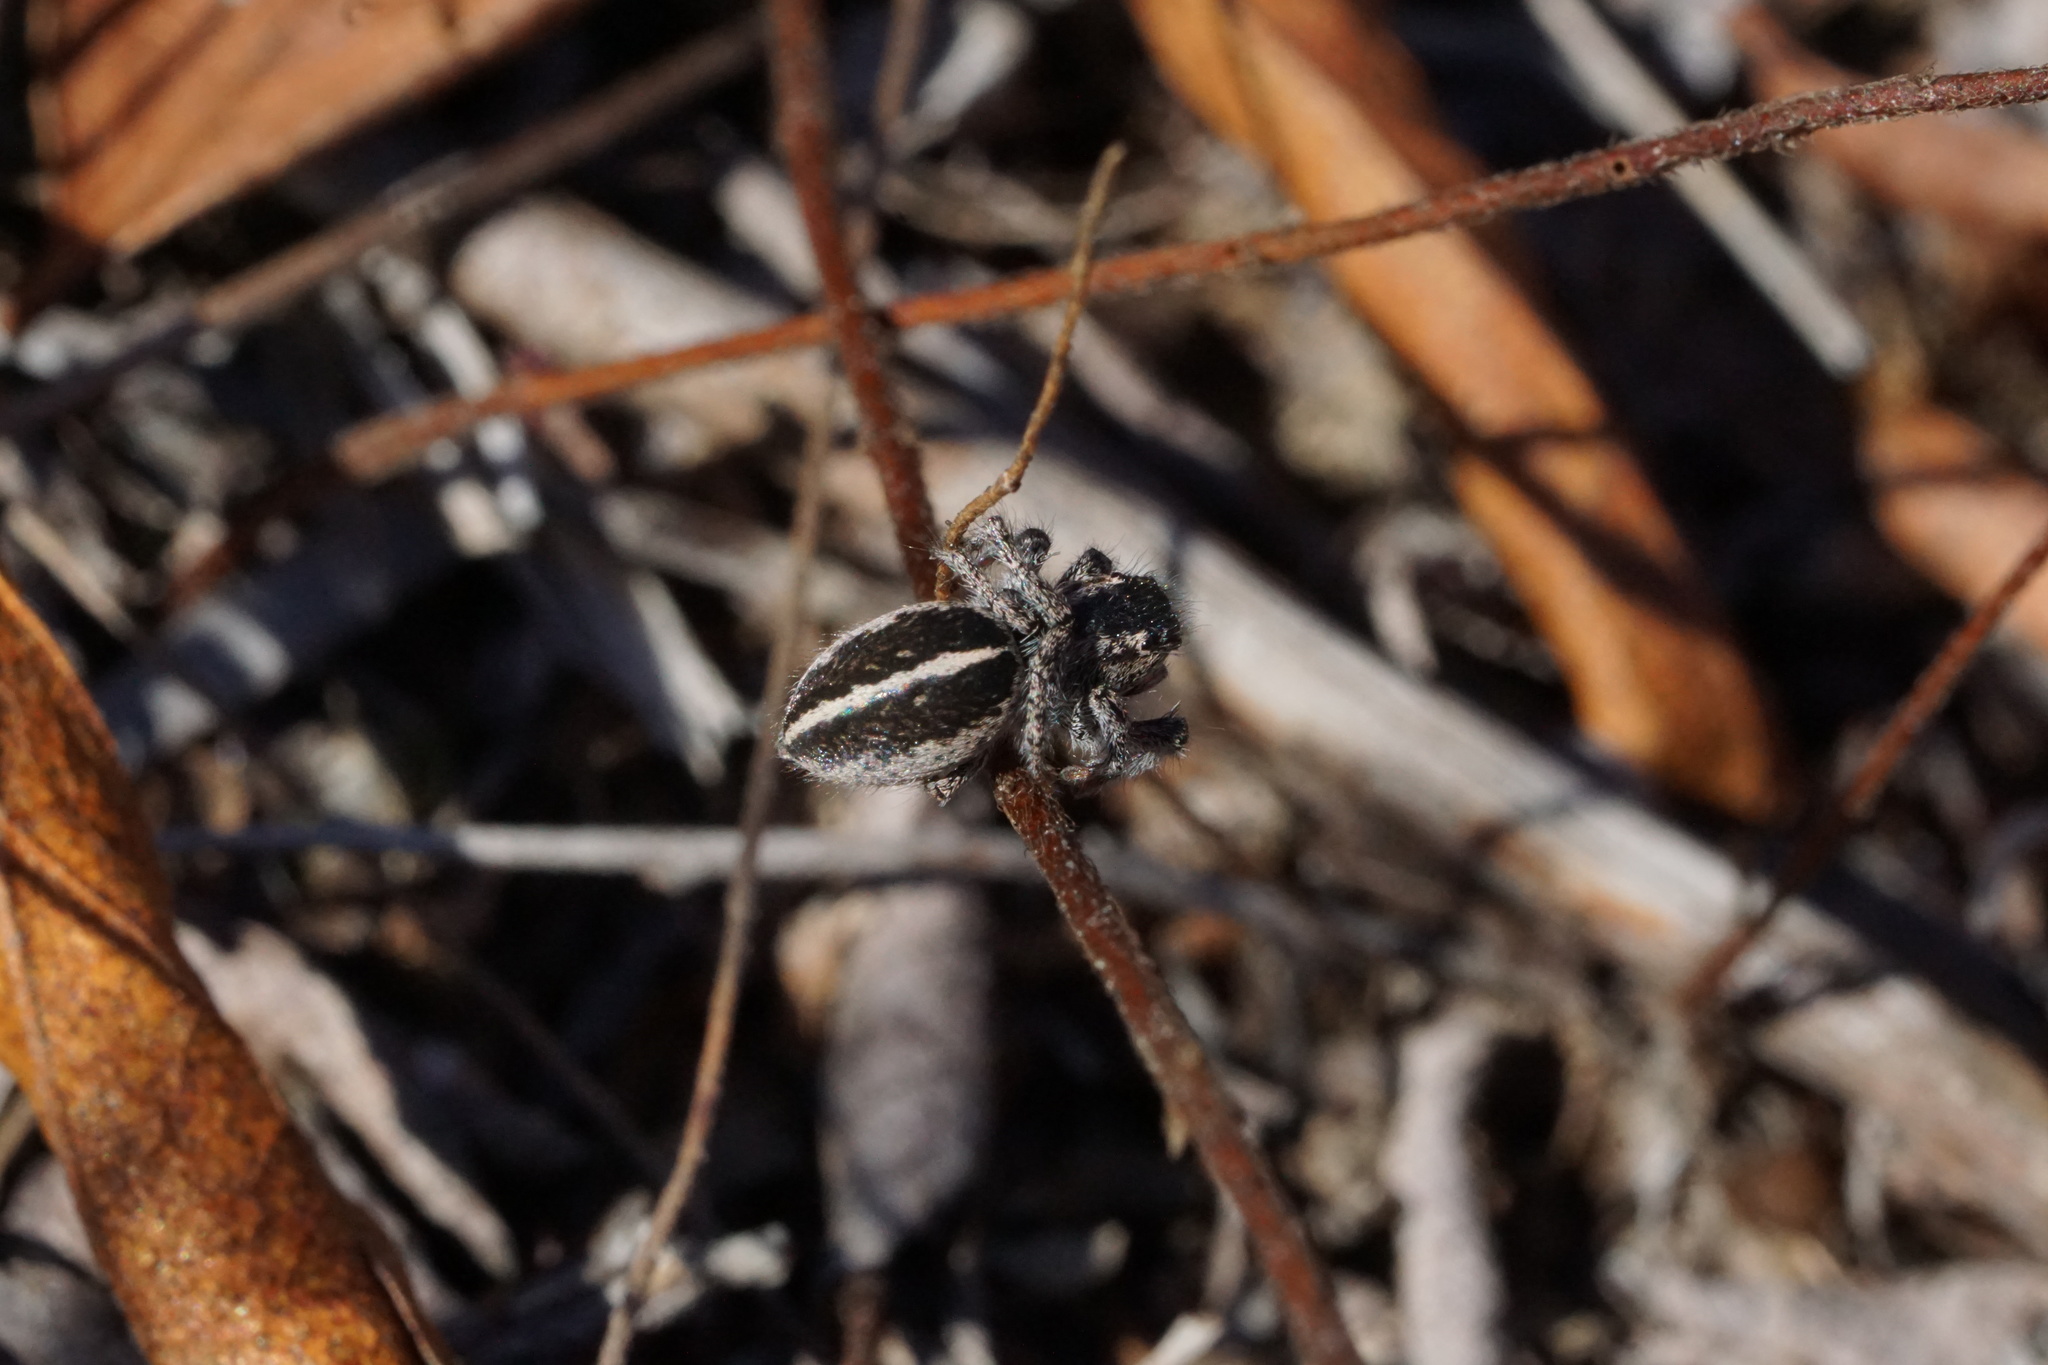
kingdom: Animalia
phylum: Arthropoda
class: Arachnida
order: Araneae
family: Salticidae
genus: Habronattus
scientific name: Habronattus orbus
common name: Orbus paradise spider
